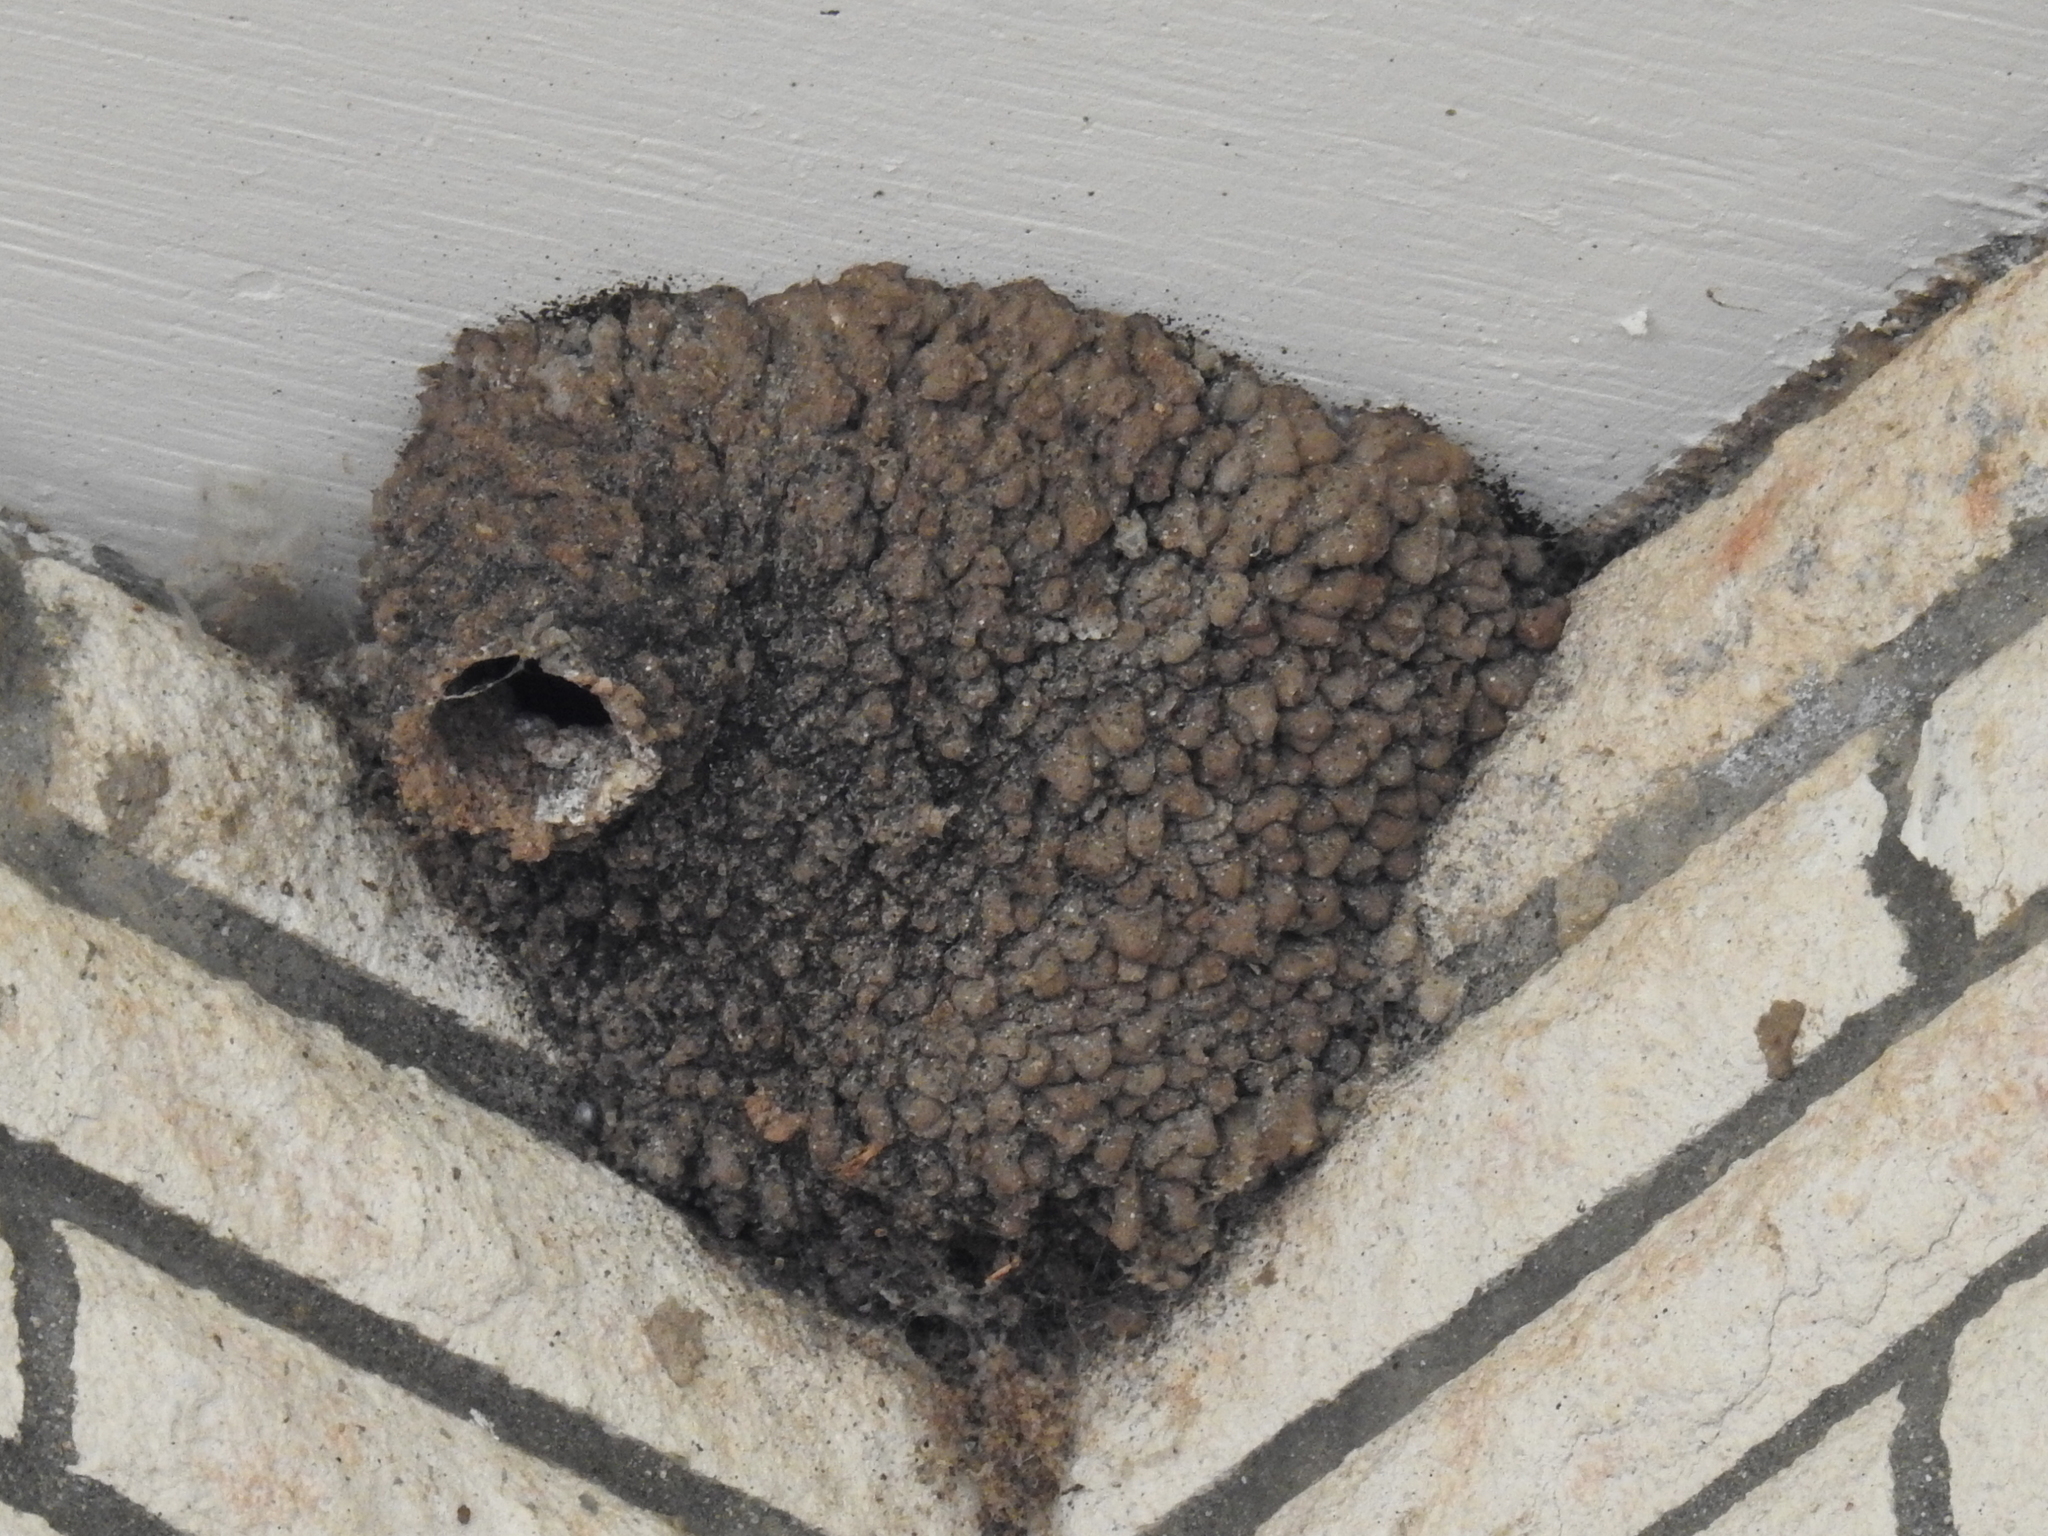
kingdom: Animalia
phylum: Chordata
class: Aves
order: Passeriformes
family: Hirundinidae
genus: Petrochelidon
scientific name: Petrochelidon pyrrhonota
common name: American cliff swallow
